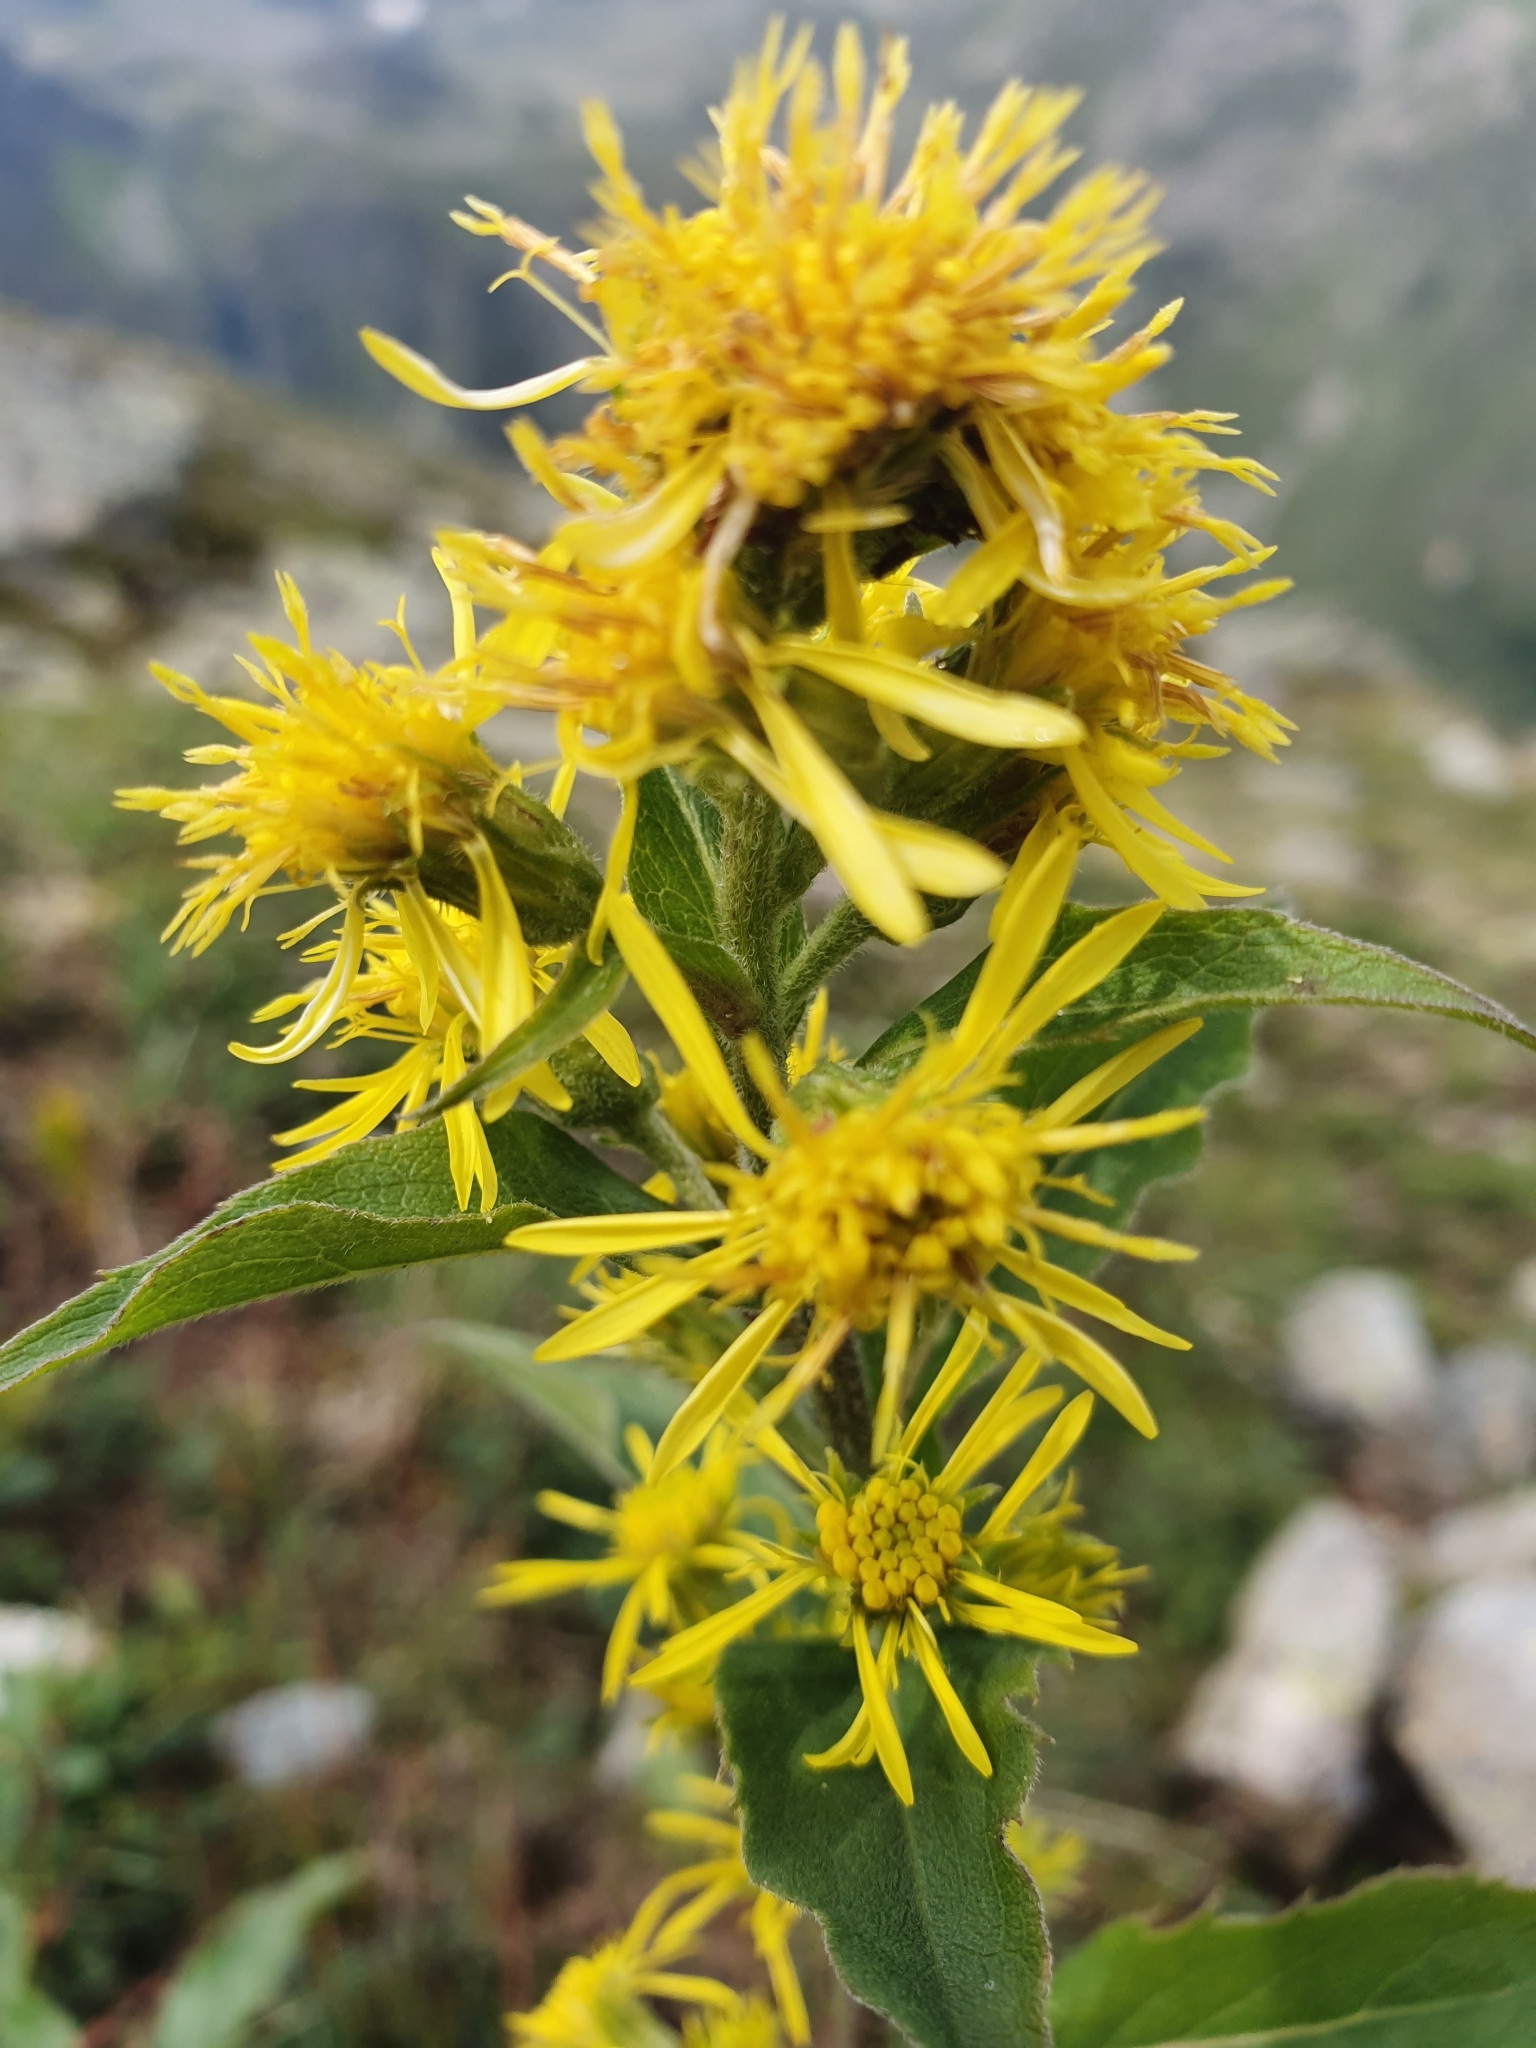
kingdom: Plantae
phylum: Tracheophyta
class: Magnoliopsida
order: Asterales
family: Asteraceae
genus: Solidago
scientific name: Solidago virgaurea
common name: Goldenrod
